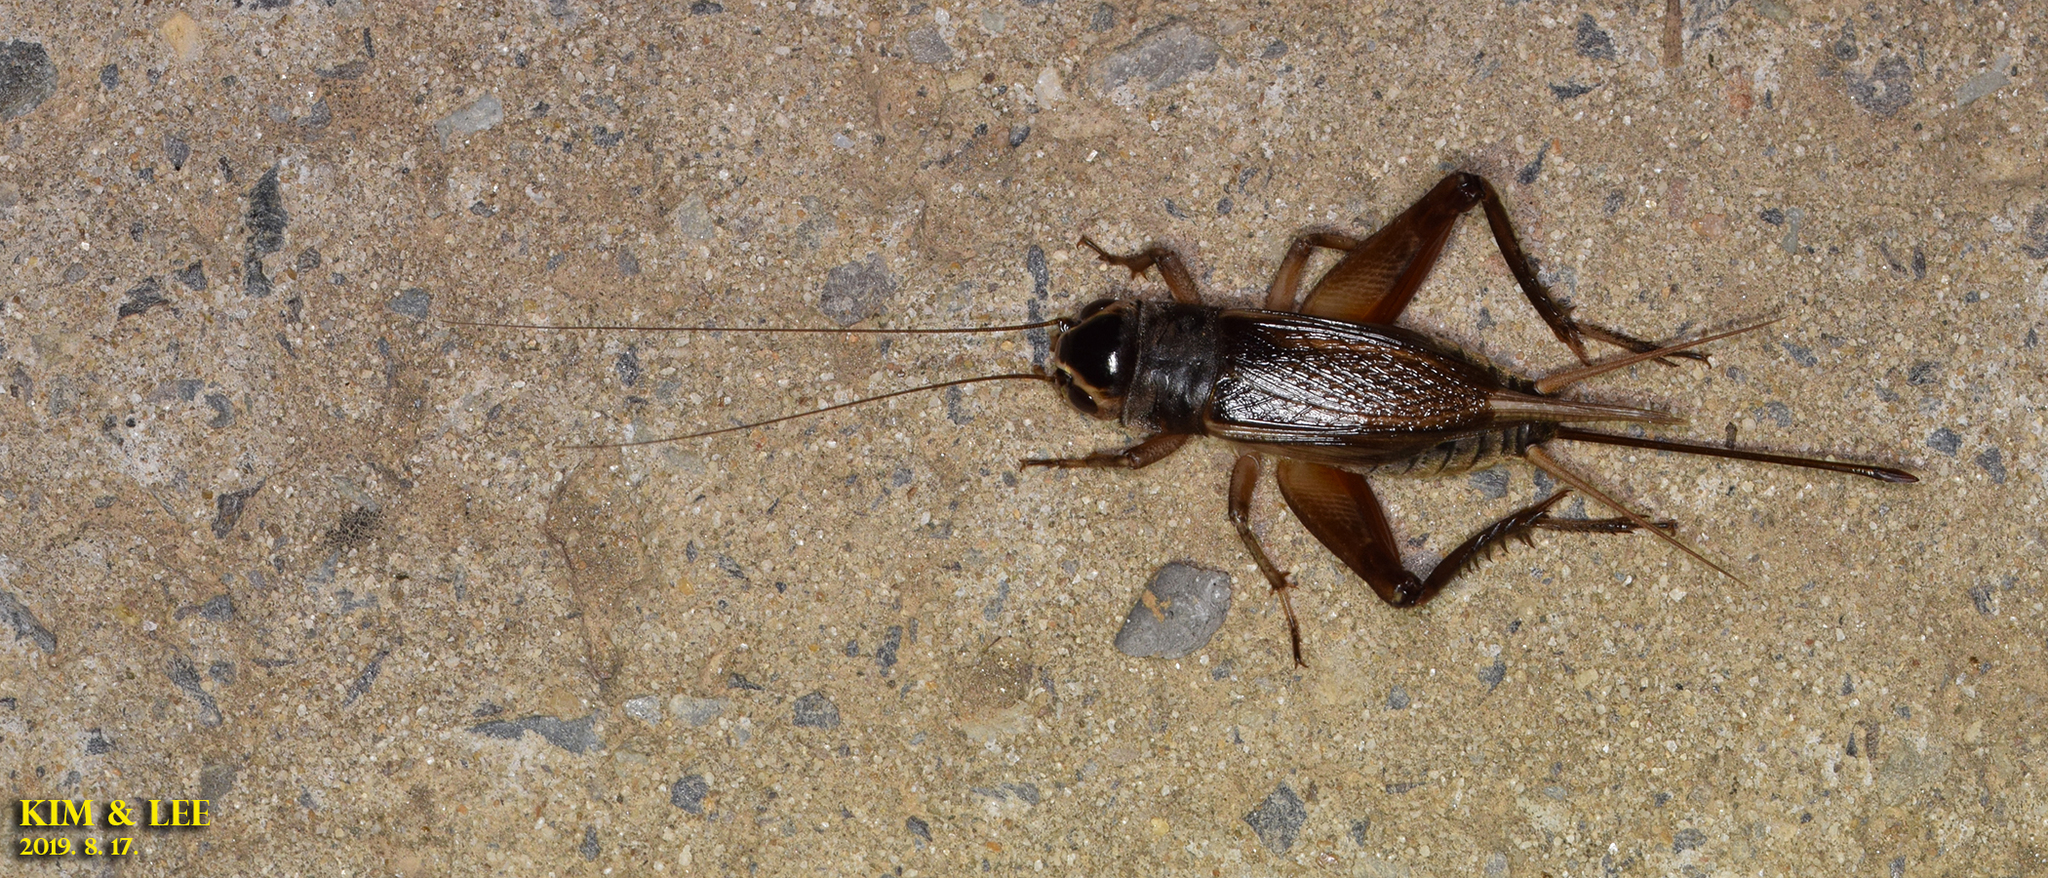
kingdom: Animalia
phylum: Arthropoda
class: Insecta
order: Orthoptera
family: Gryllidae
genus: Teleogryllus
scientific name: Teleogryllus emma
